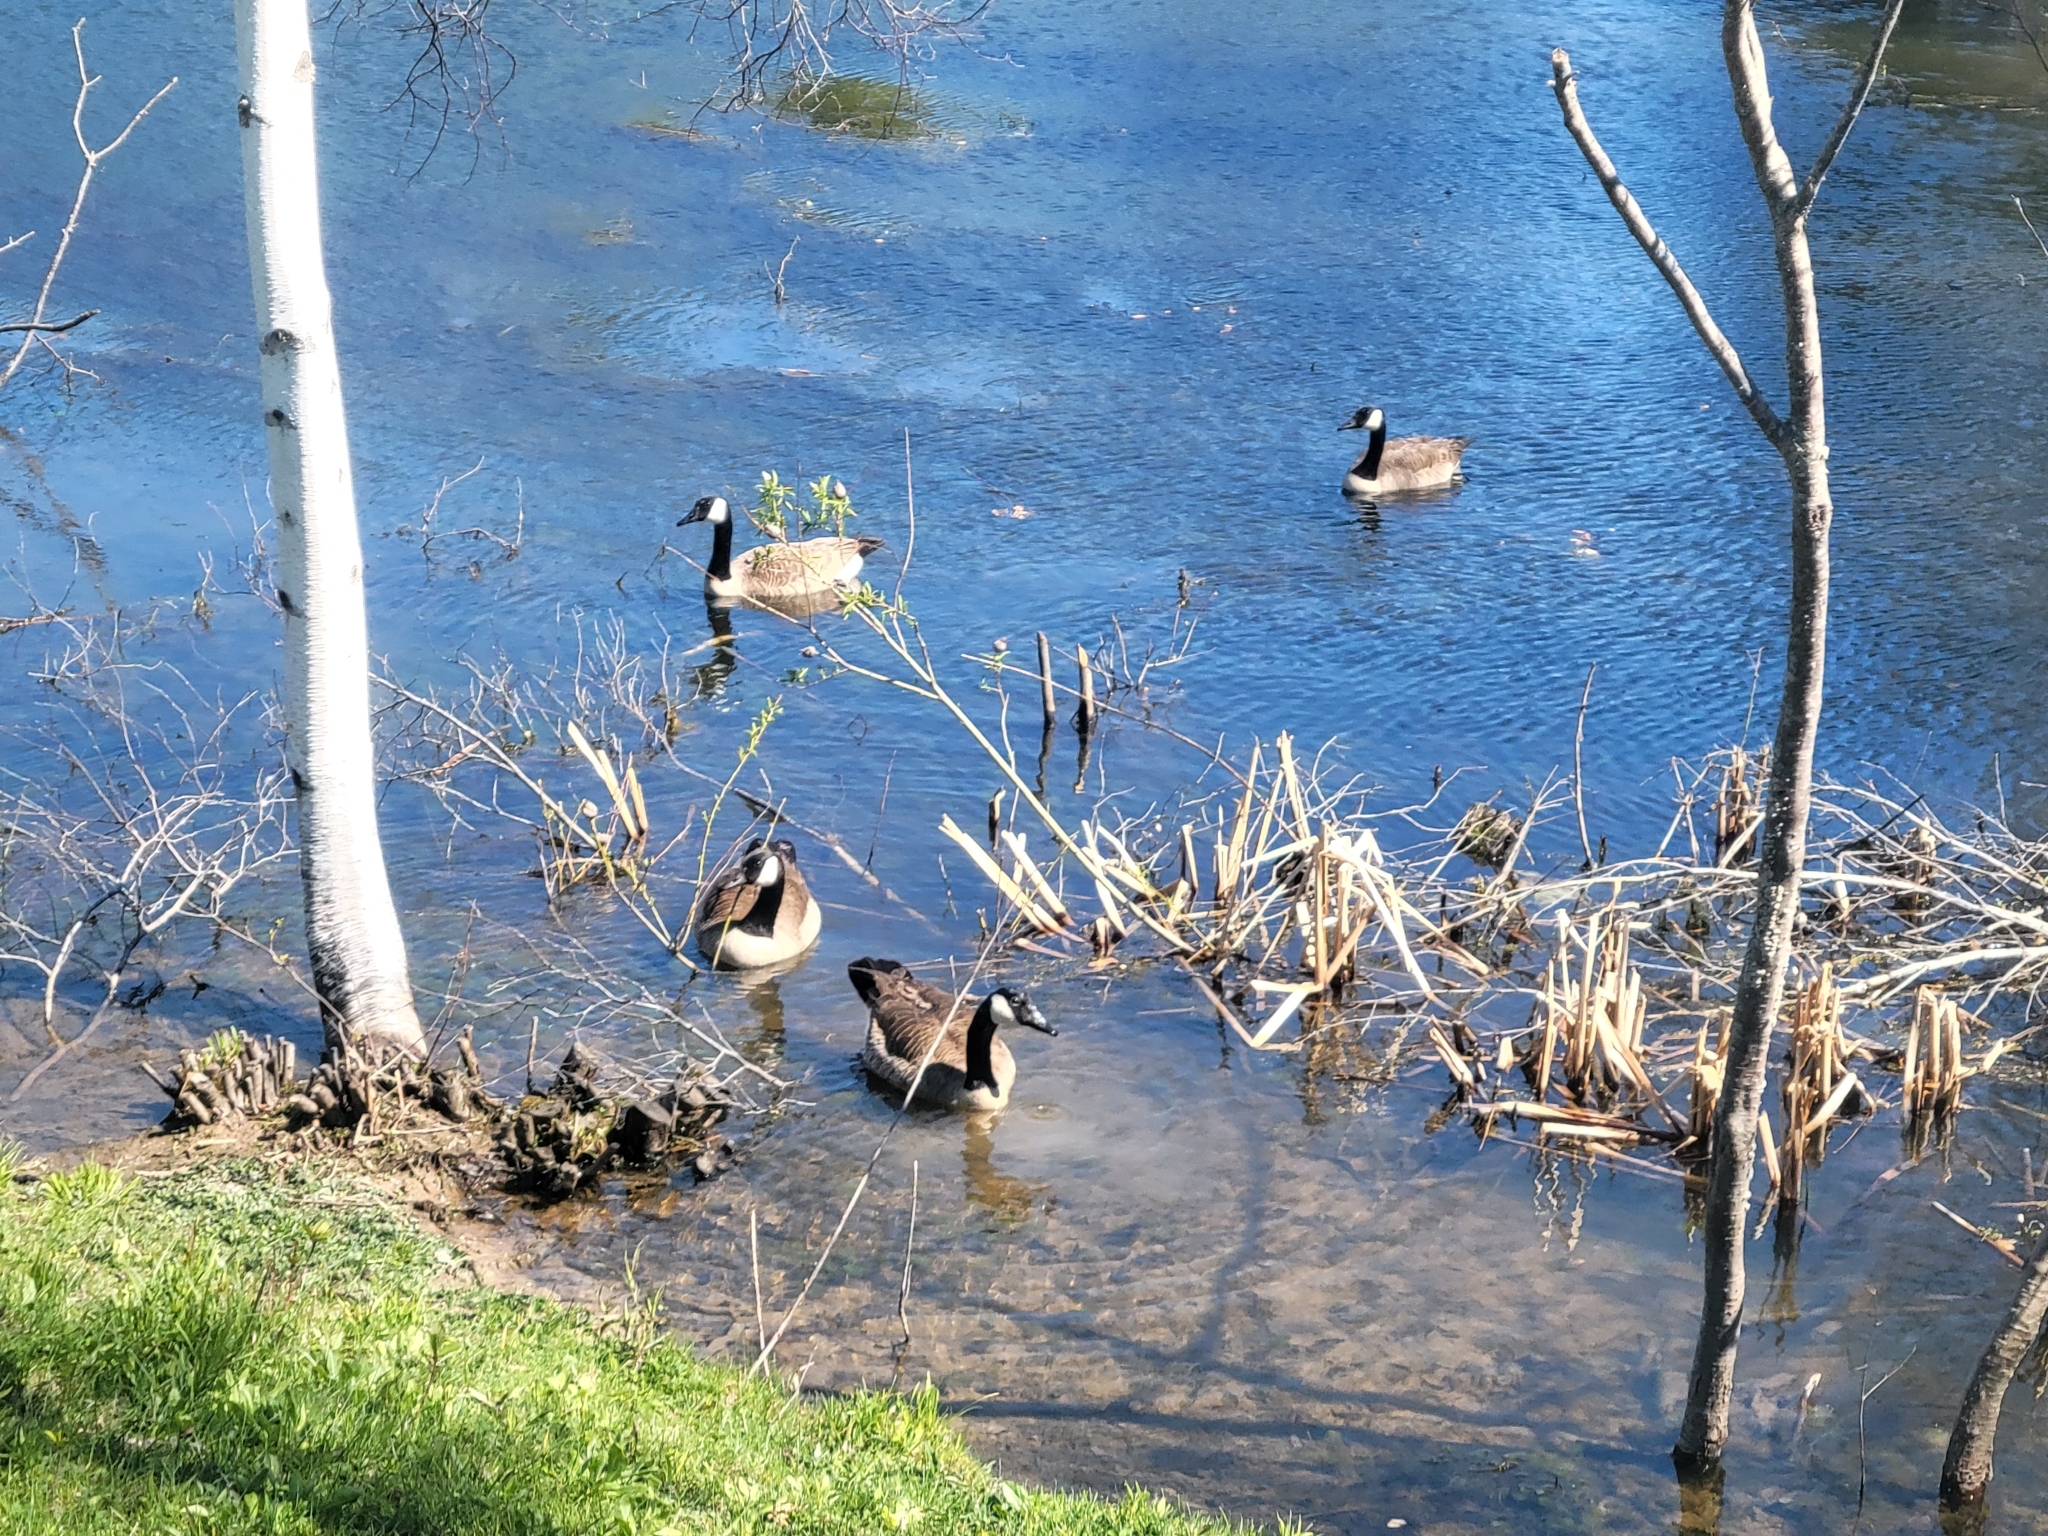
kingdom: Animalia
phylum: Chordata
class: Aves
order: Anseriformes
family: Anatidae
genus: Branta
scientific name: Branta canadensis
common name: Canada goose
